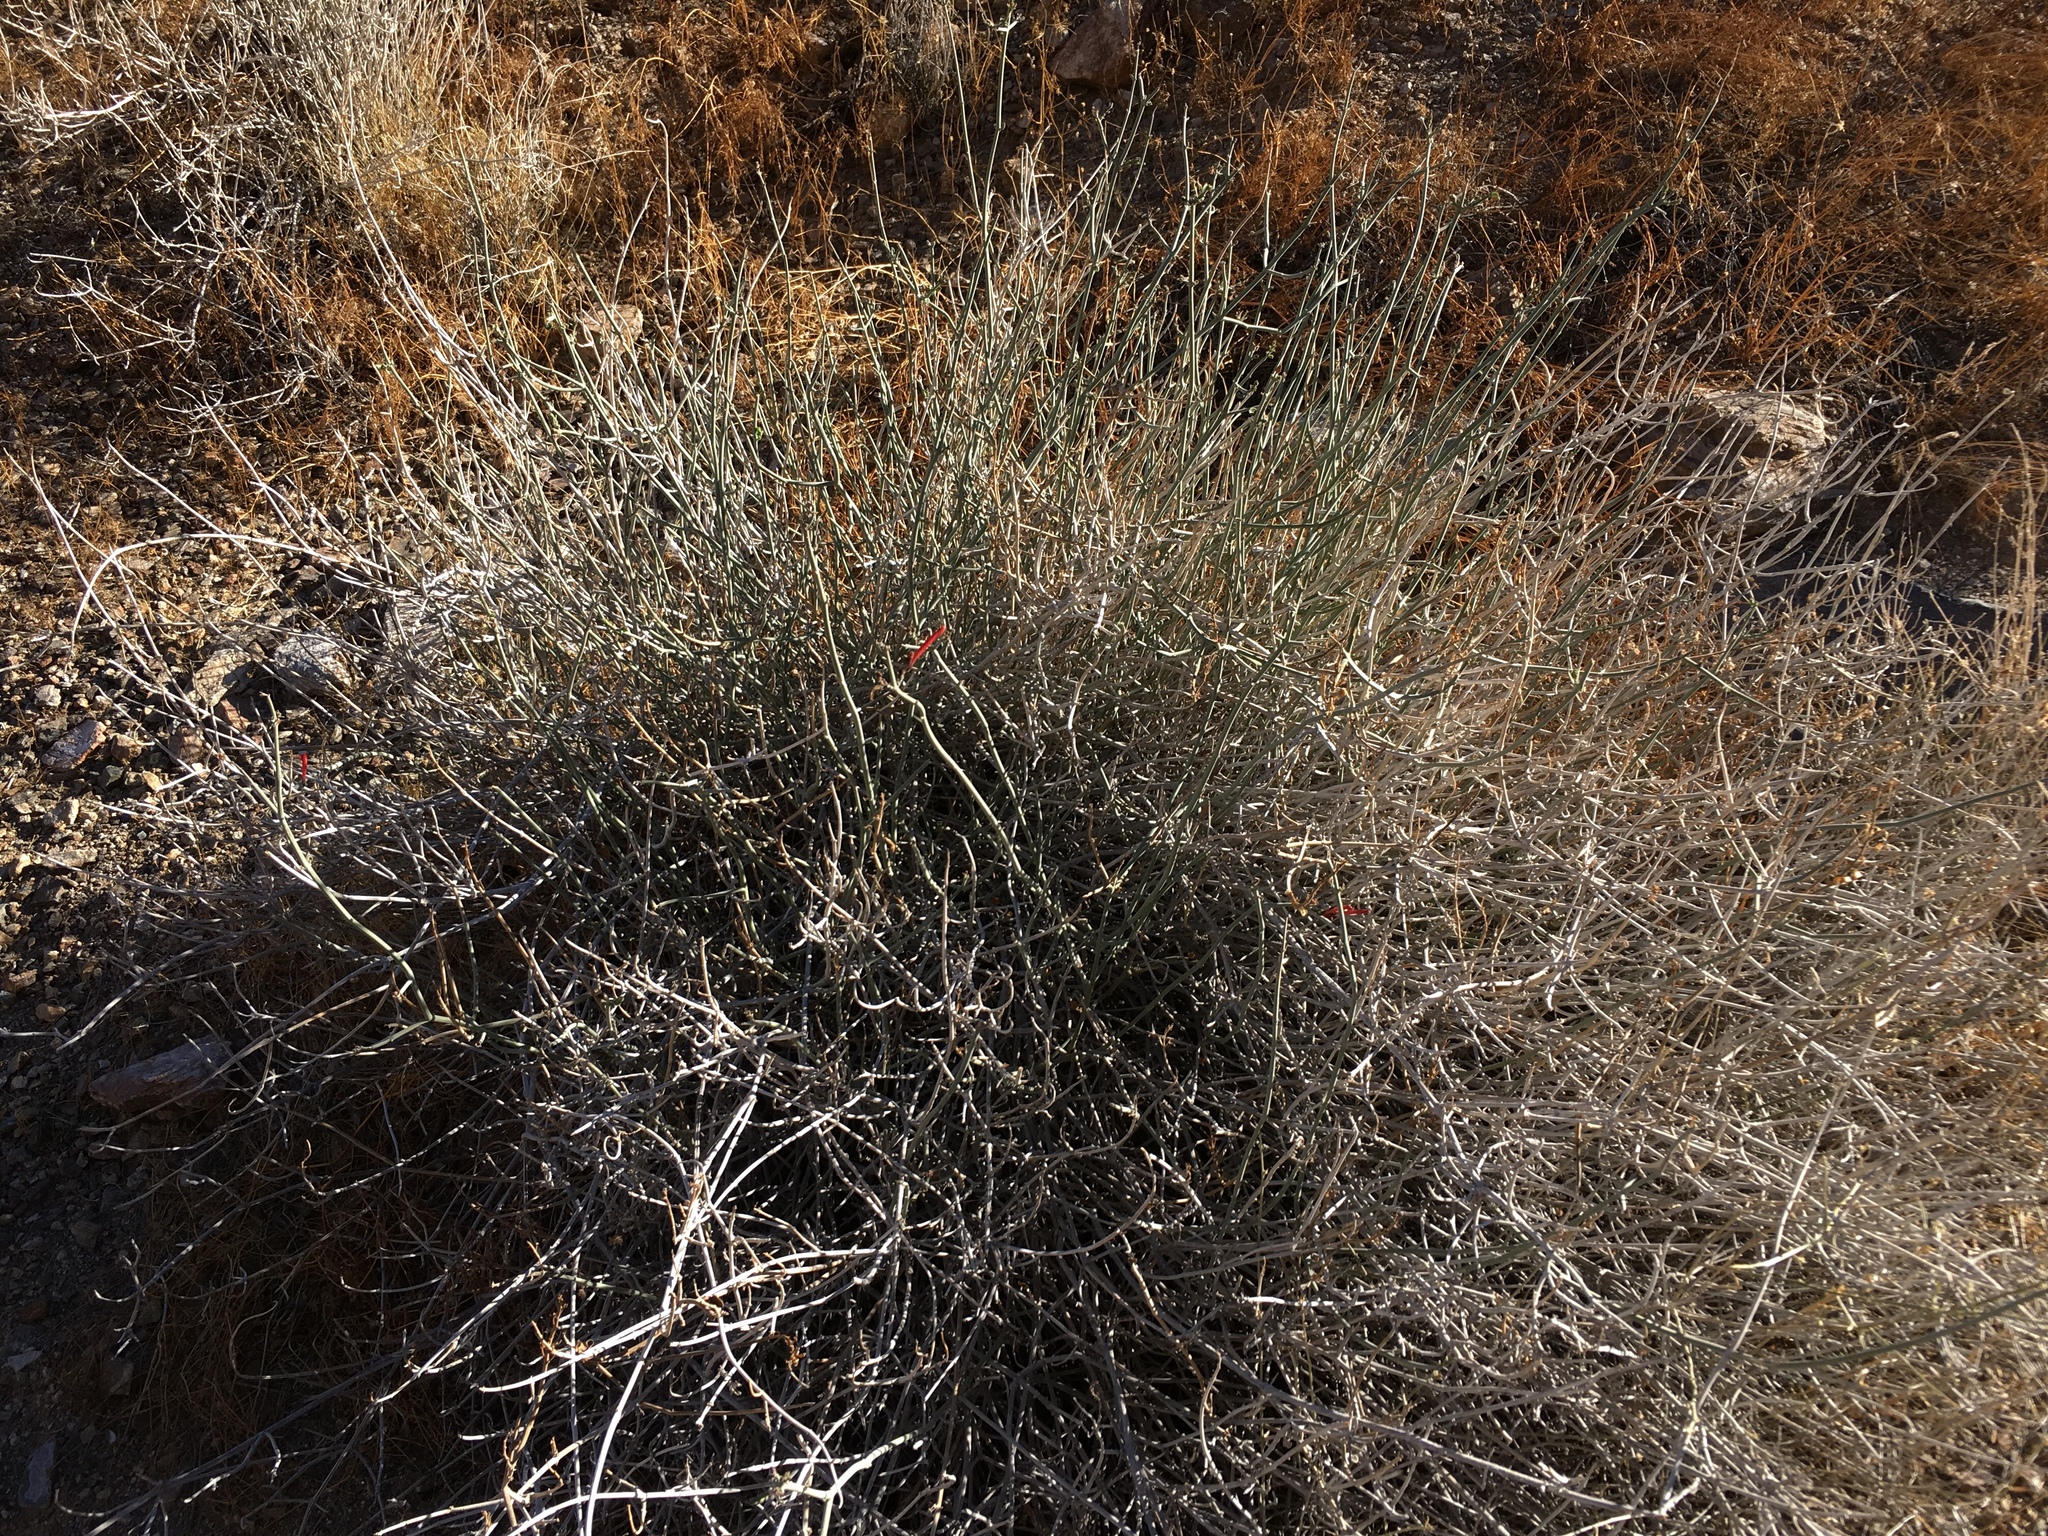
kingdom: Plantae
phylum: Tracheophyta
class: Magnoliopsida
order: Lamiales
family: Acanthaceae
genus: Justicia
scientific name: Justicia californica
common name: Chuparosa-honeysuckle
